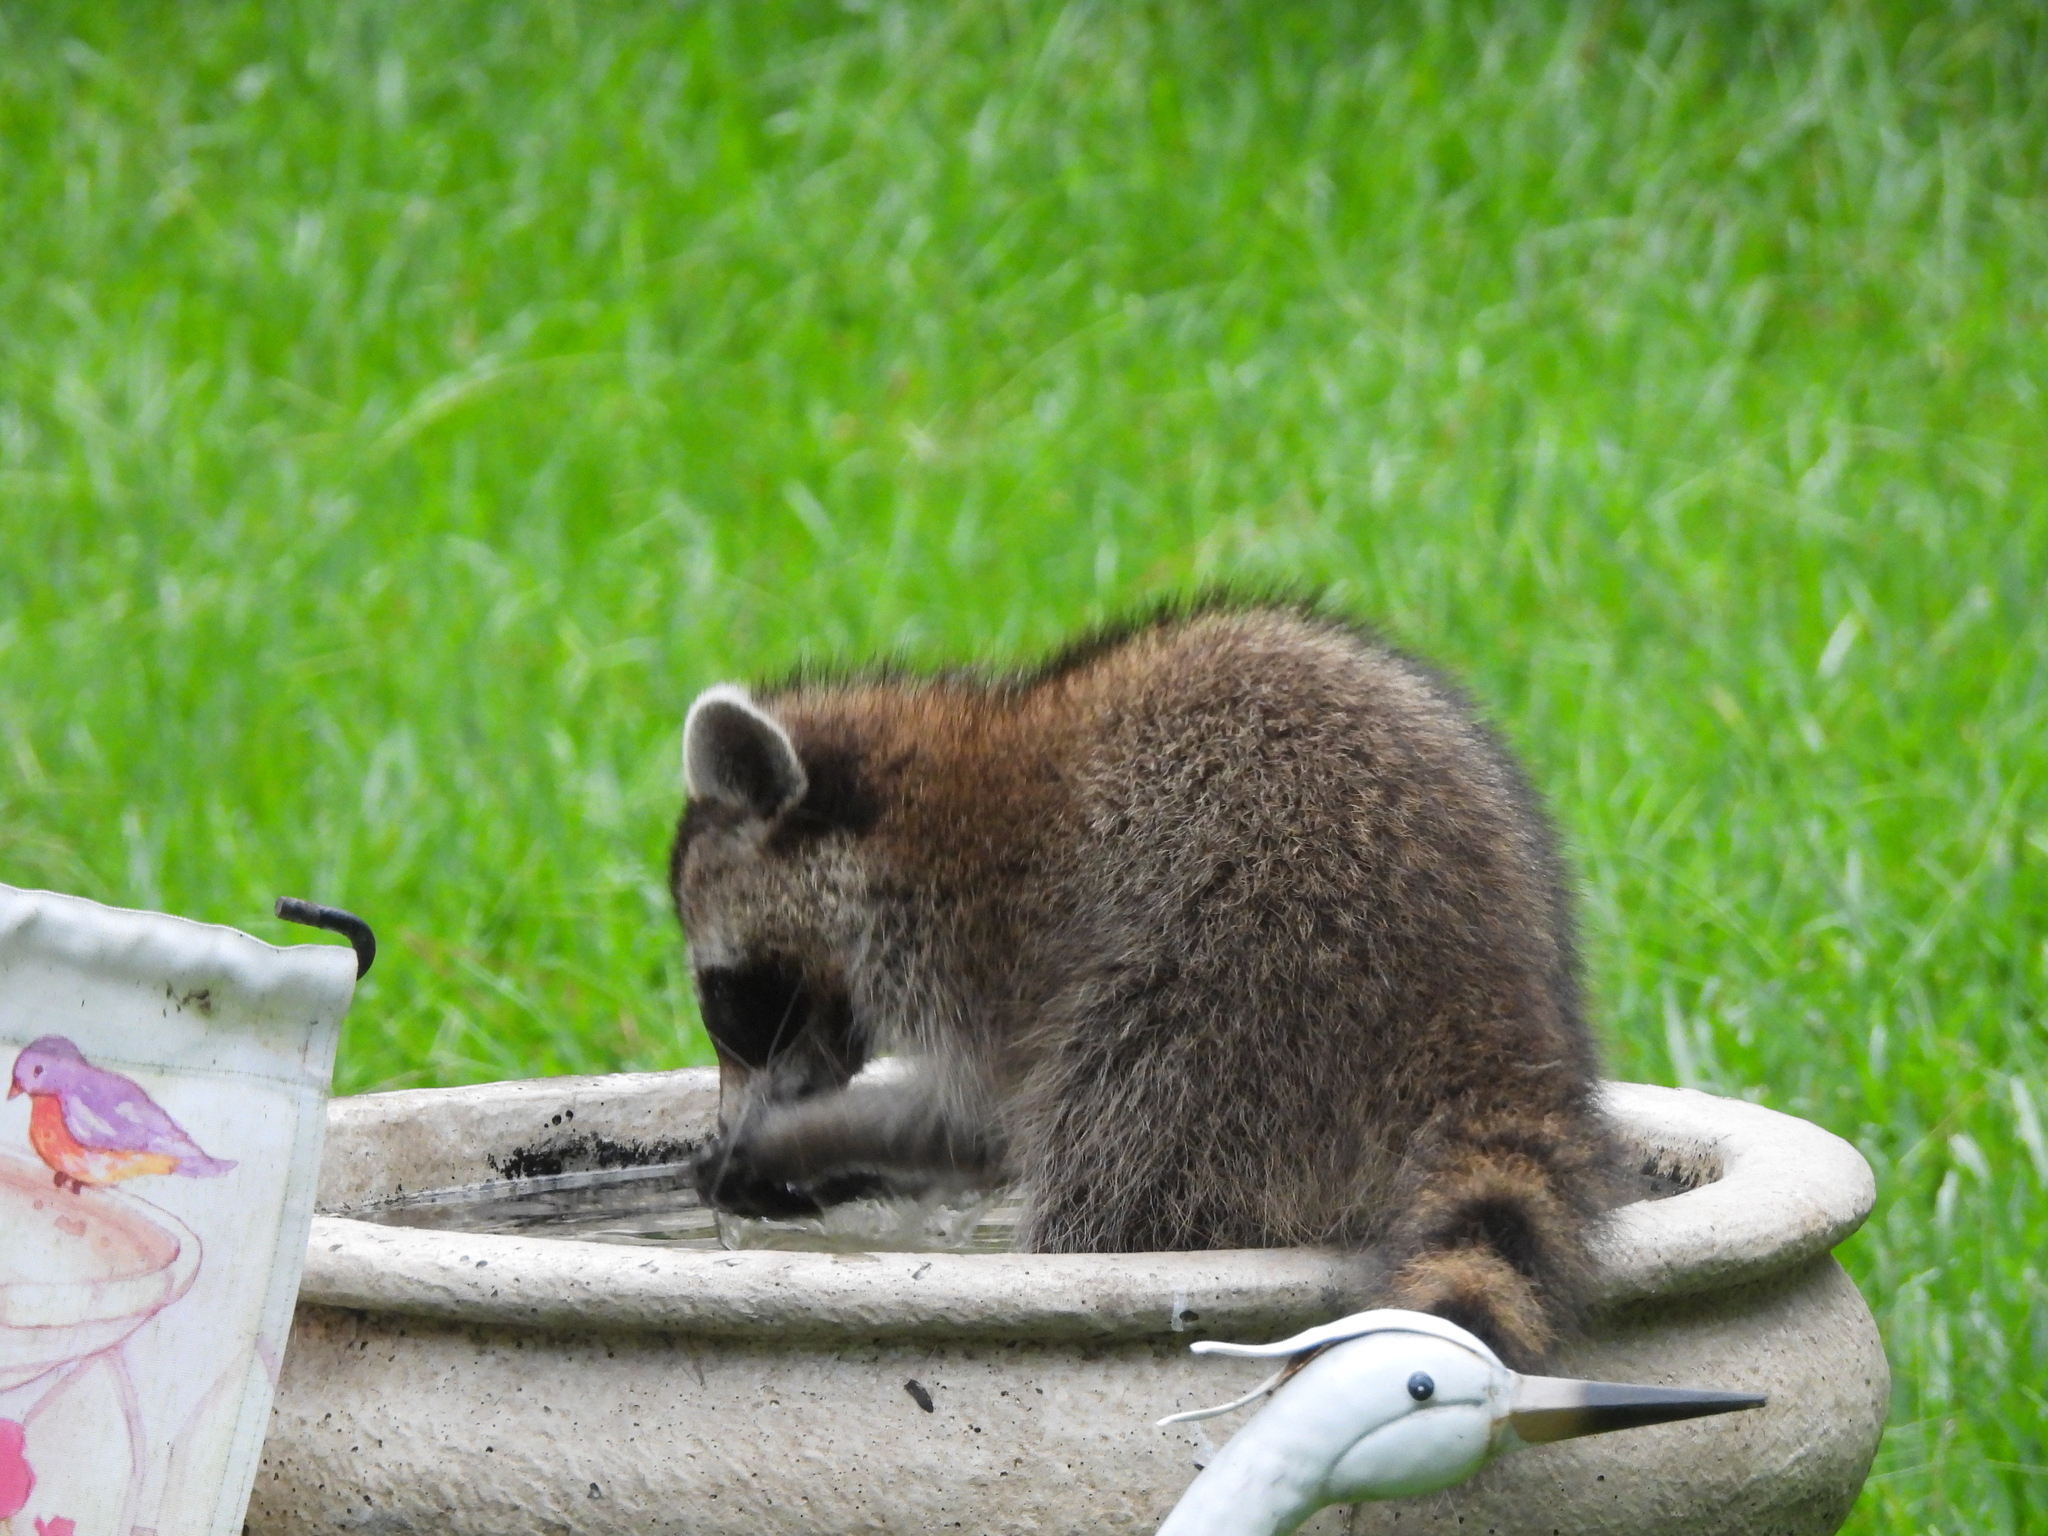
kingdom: Animalia
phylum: Chordata
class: Mammalia
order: Carnivora
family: Procyonidae
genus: Procyon
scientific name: Procyon lotor
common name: Raccoon
